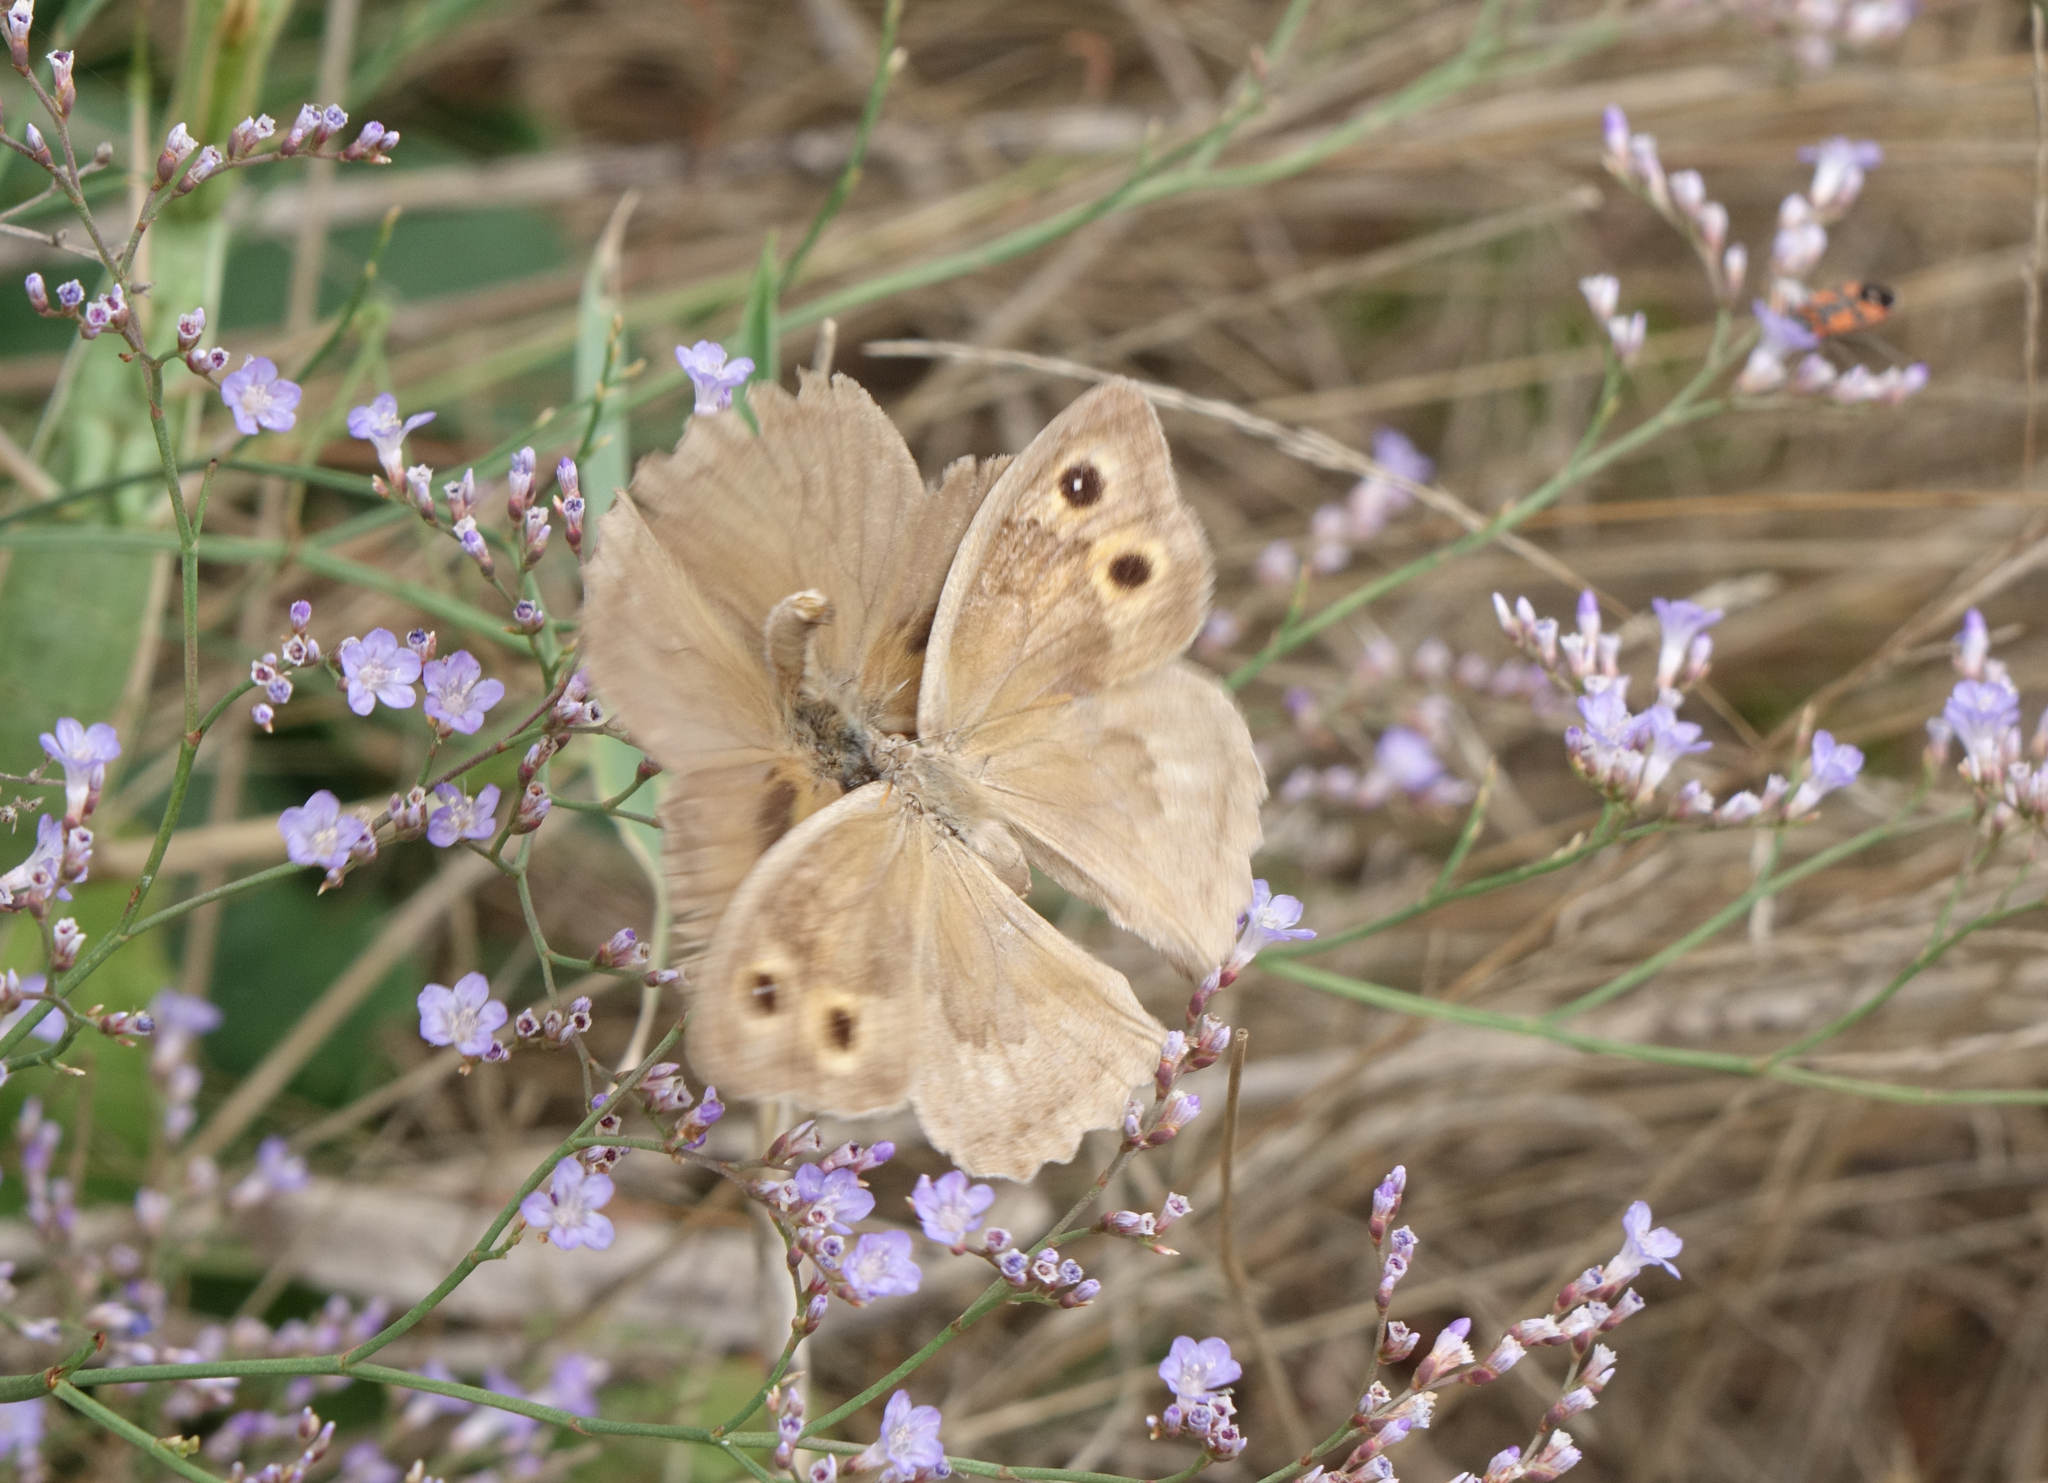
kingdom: Plantae
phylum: Tracheophyta
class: Magnoliopsida
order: Caryophyllales
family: Plumbaginaceae
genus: Limonium
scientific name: Limonium scoparium
